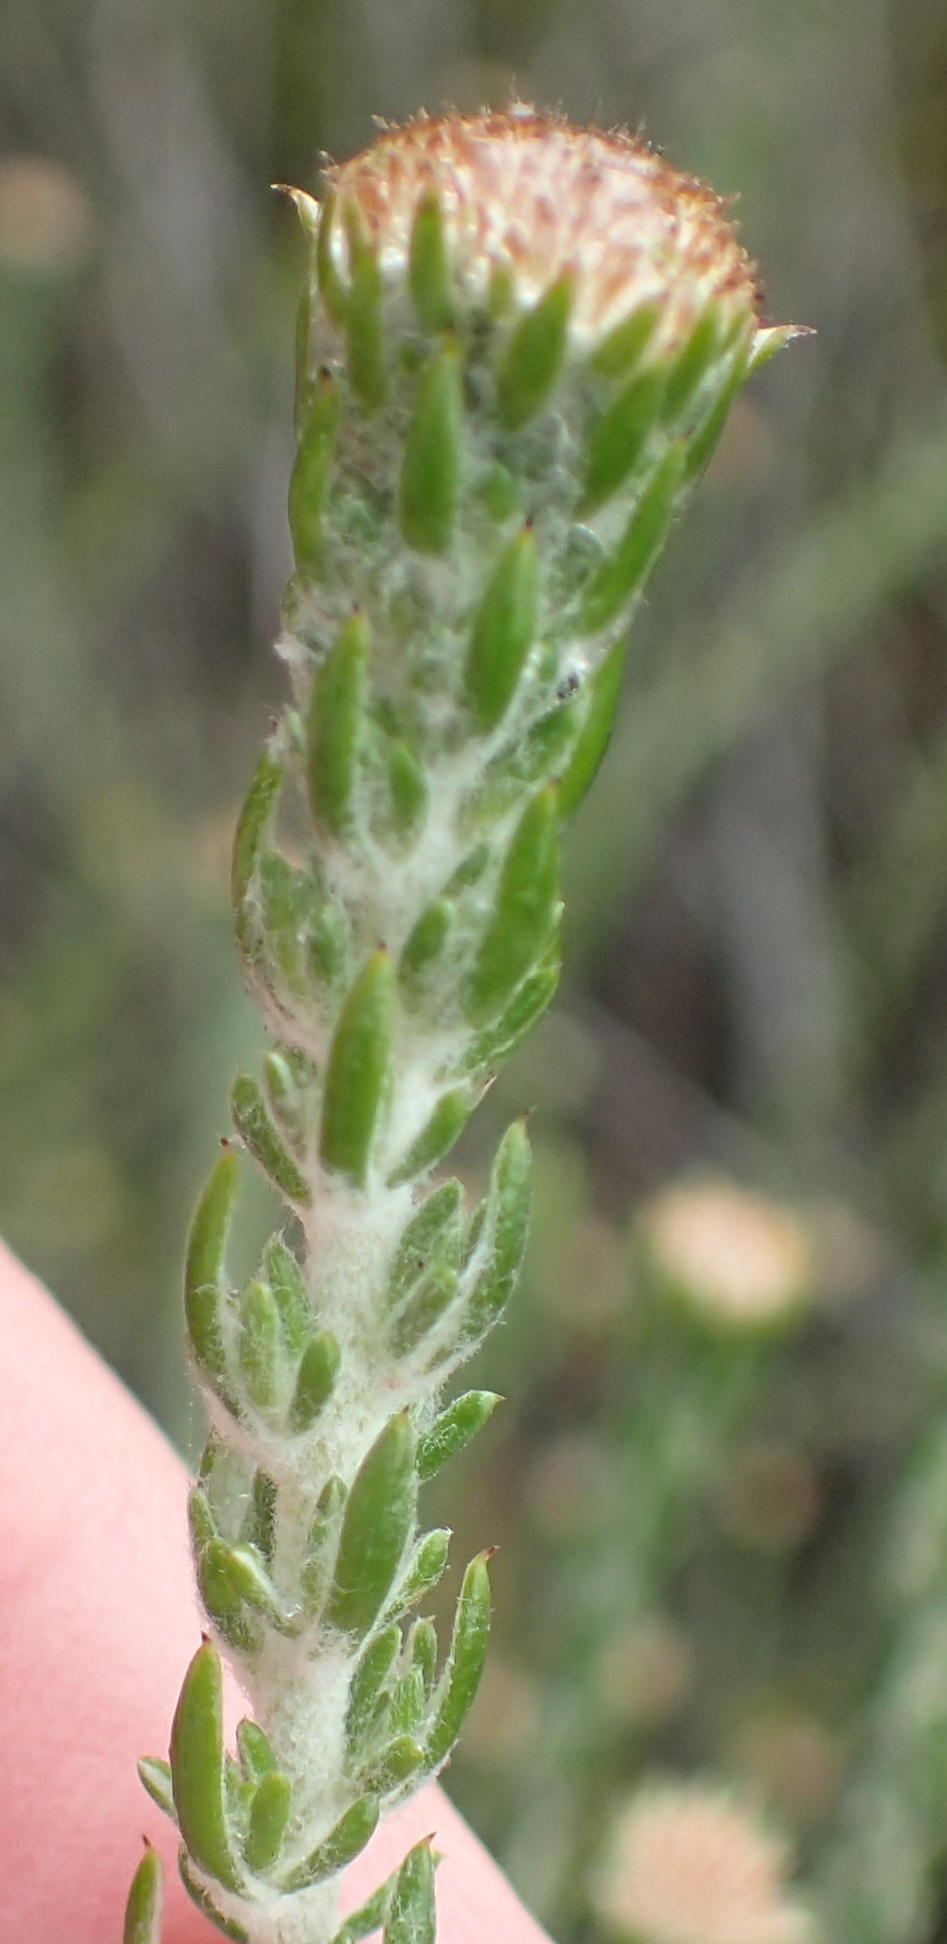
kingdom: Plantae
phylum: Tracheophyta
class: Magnoliopsida
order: Asterales
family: Asteraceae
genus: Metalasia
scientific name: Metalasia pungens
